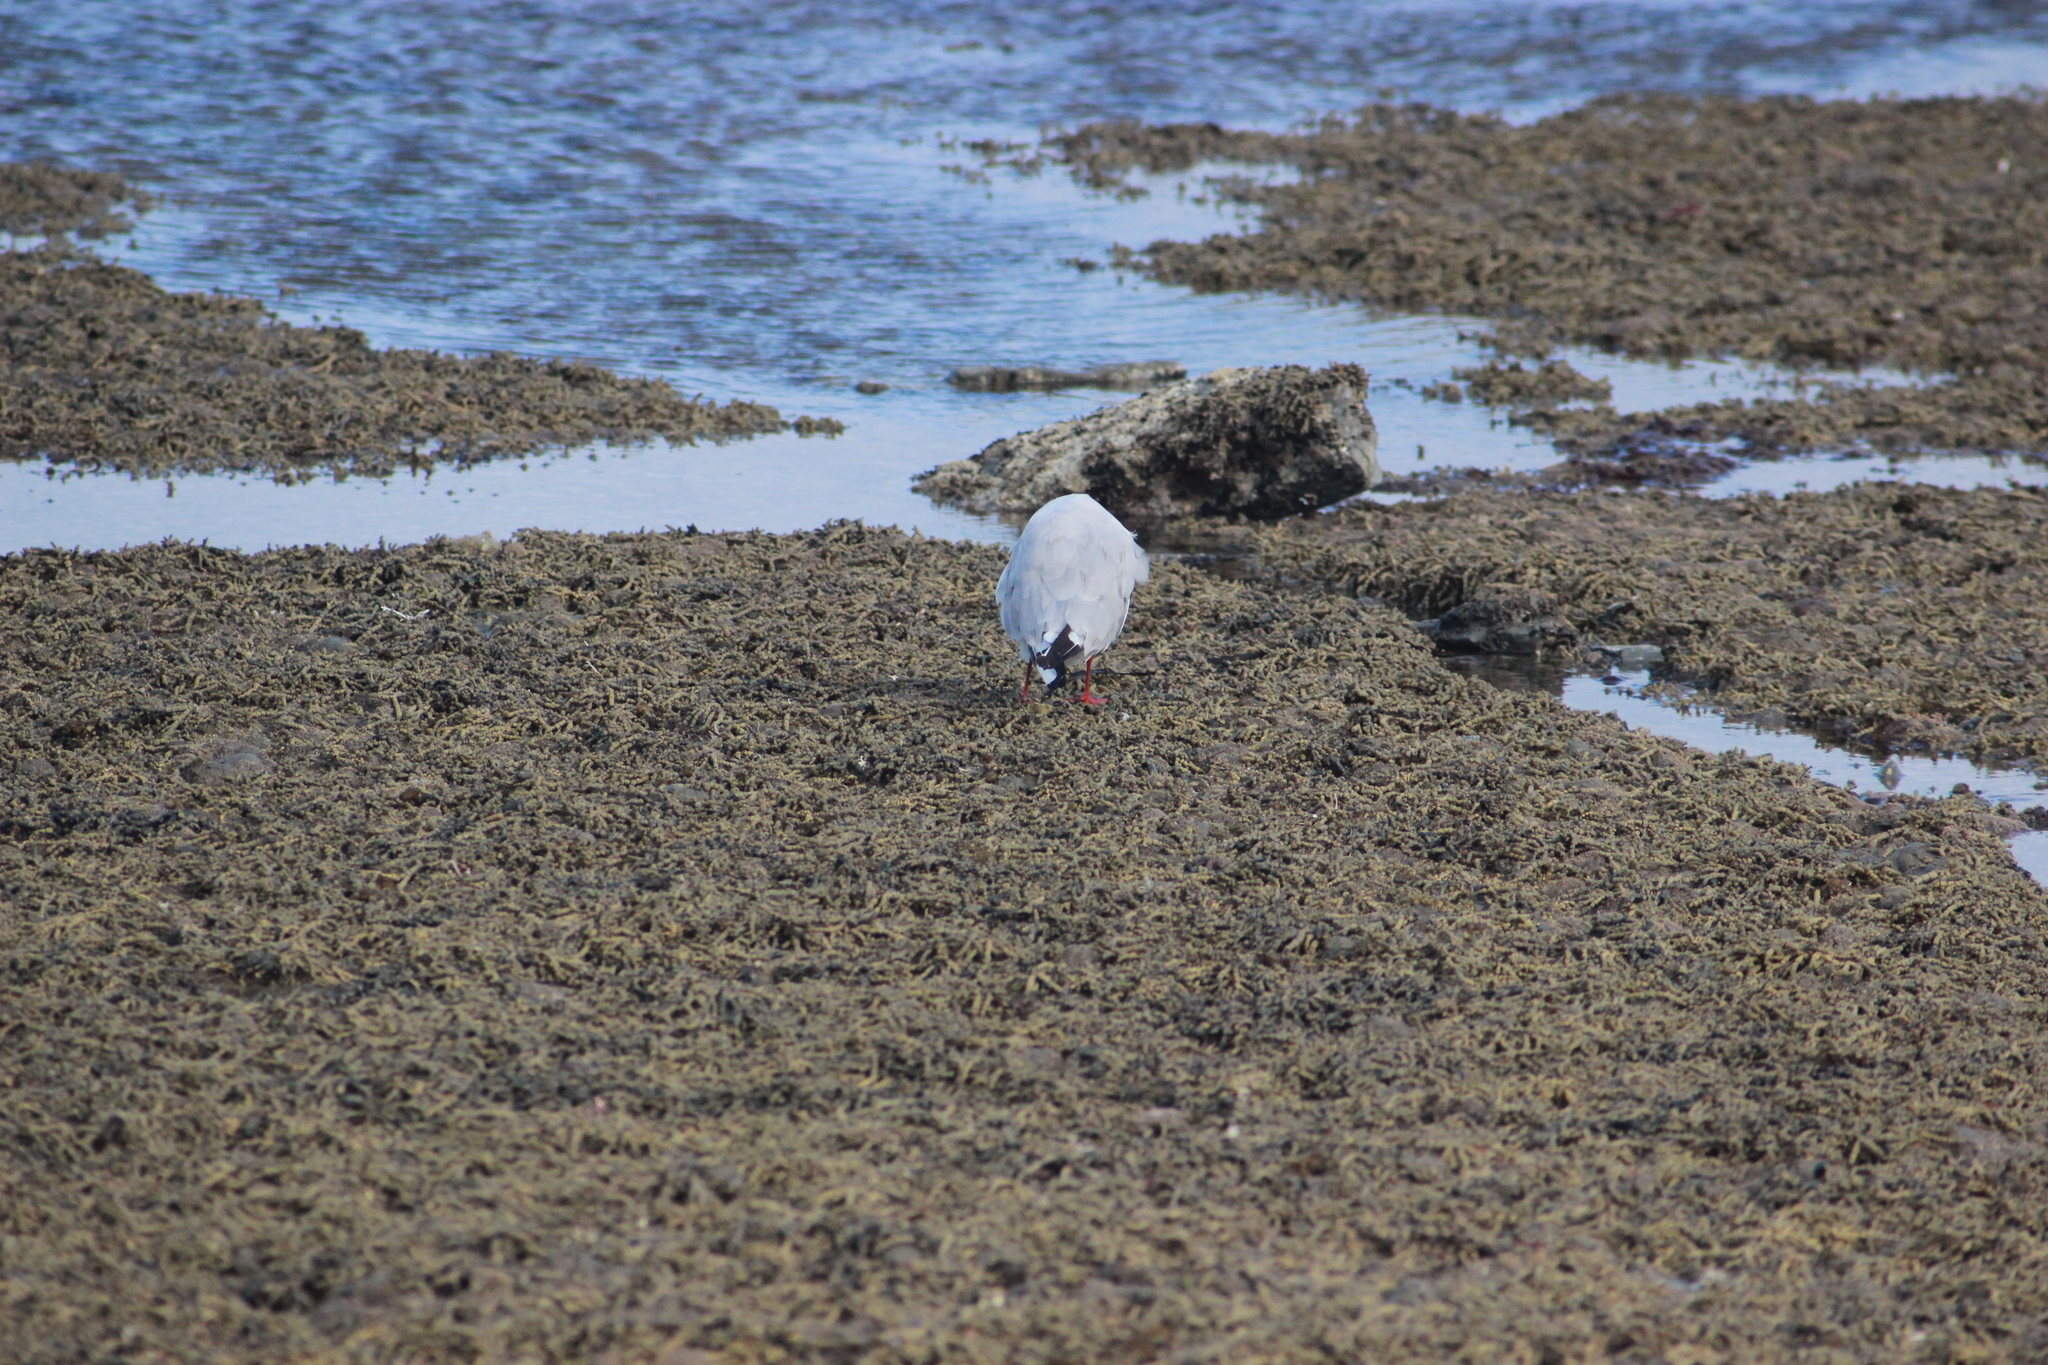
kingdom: Animalia
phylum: Chordata
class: Aves
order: Charadriiformes
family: Laridae
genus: Chroicocephalus
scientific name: Chroicocephalus novaehollandiae
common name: Silver gull
